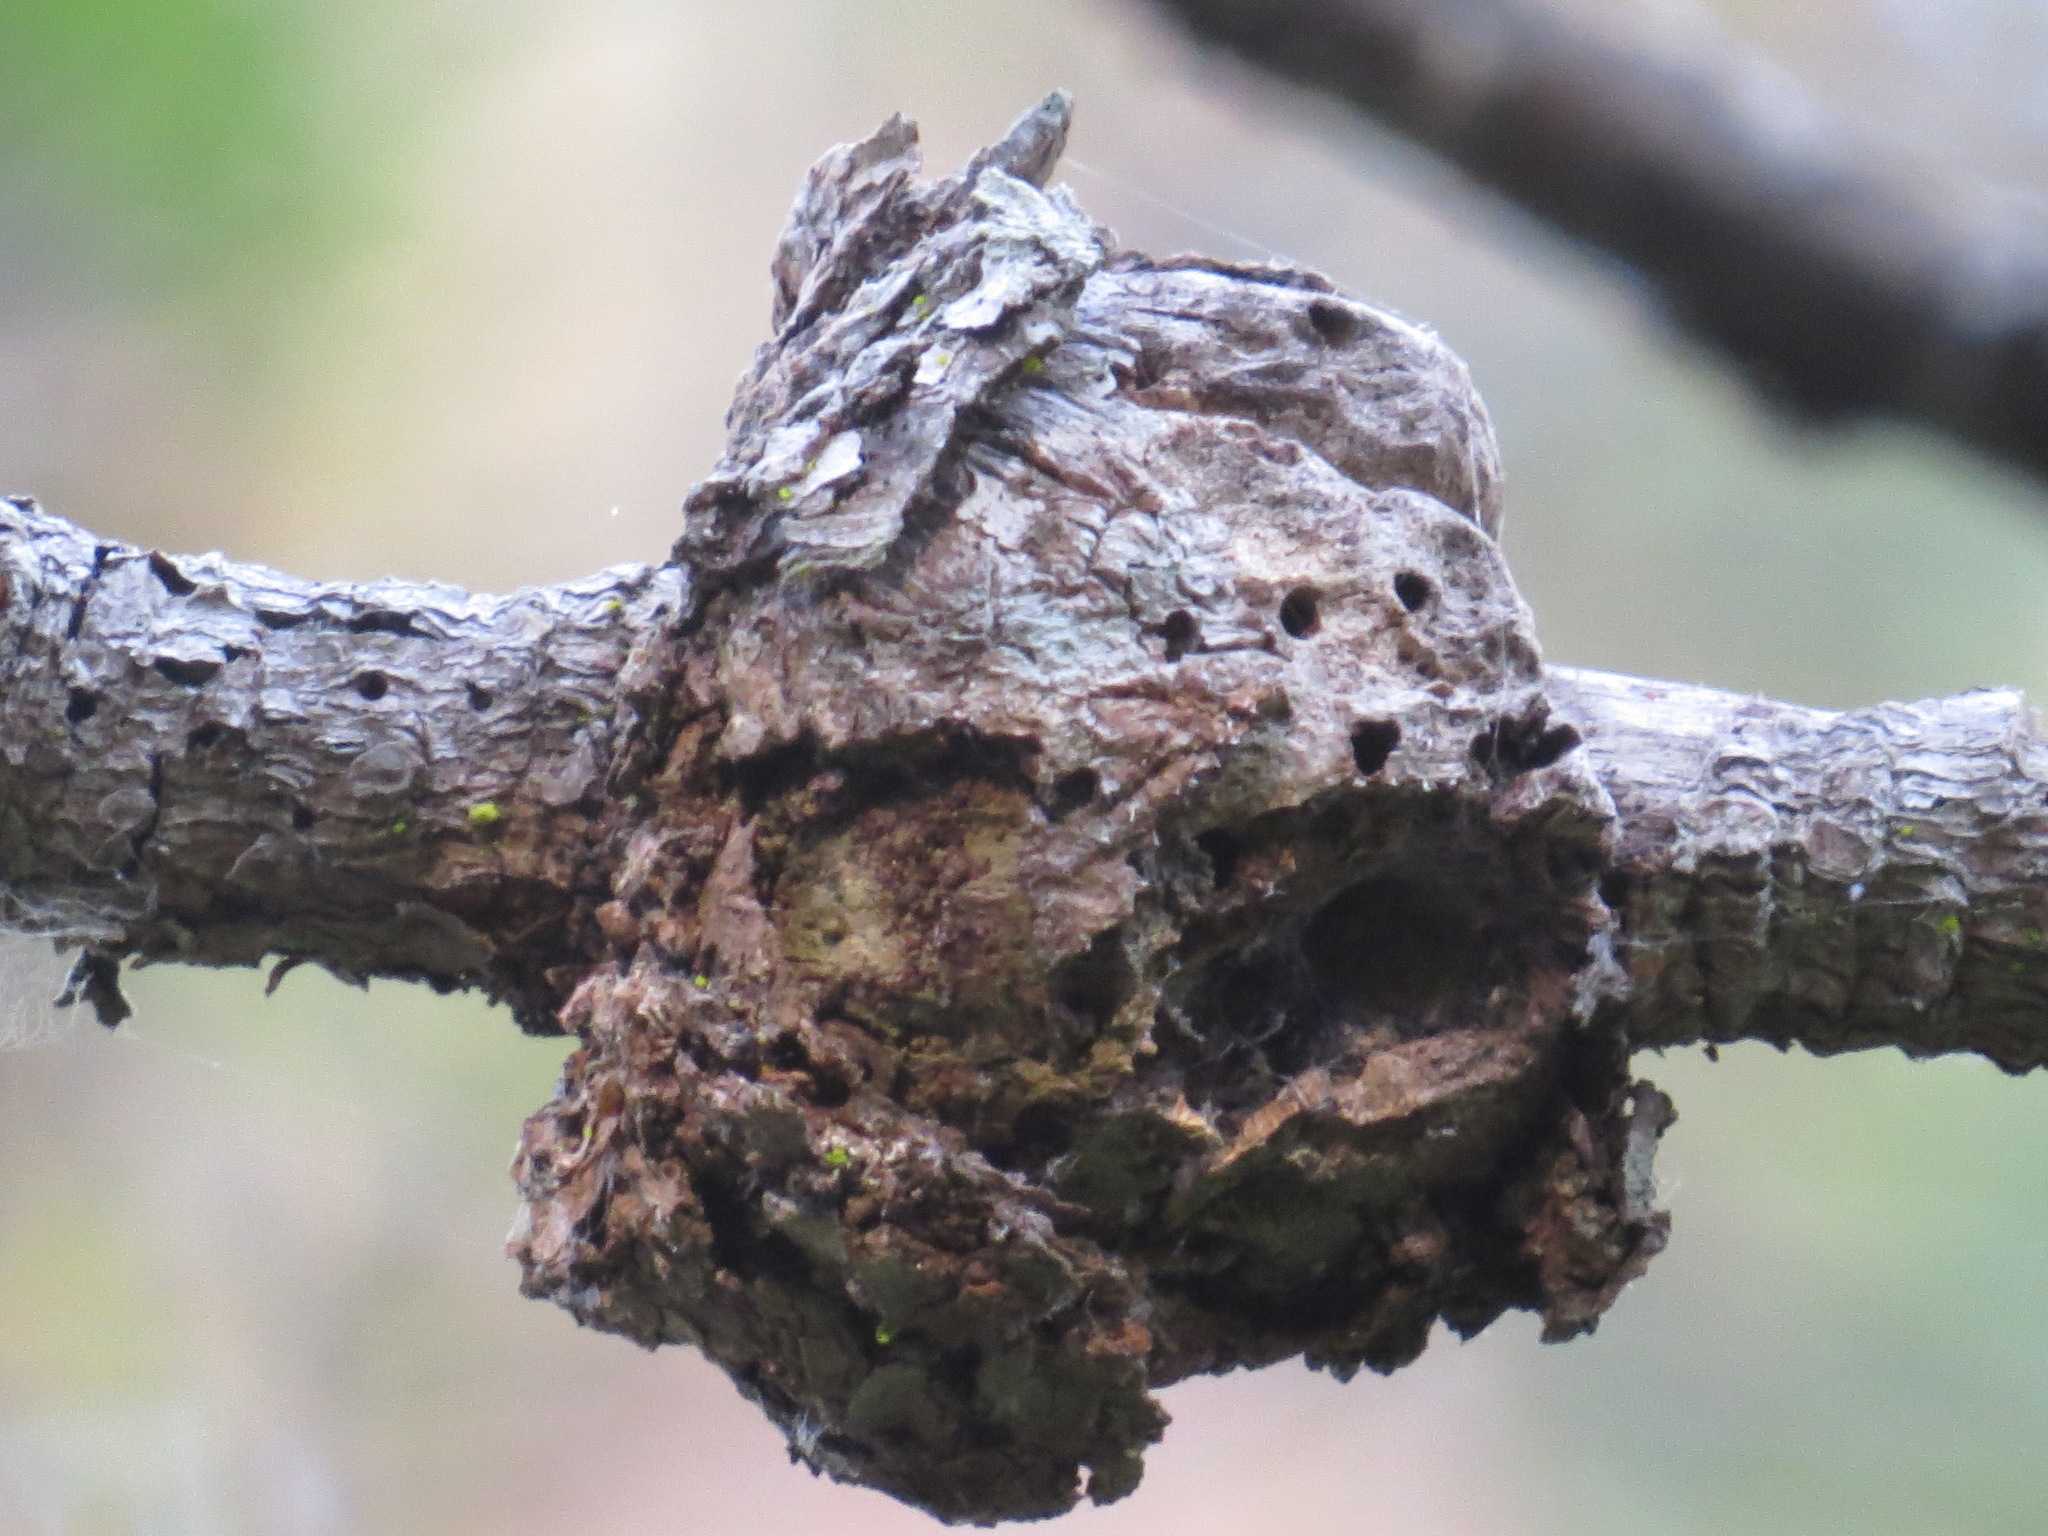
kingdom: Fungi
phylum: Basidiomycota
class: Pucciniomycetes
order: Pucciniales
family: Cronartiaceae
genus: Cronartium
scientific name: Cronartium harknessii
